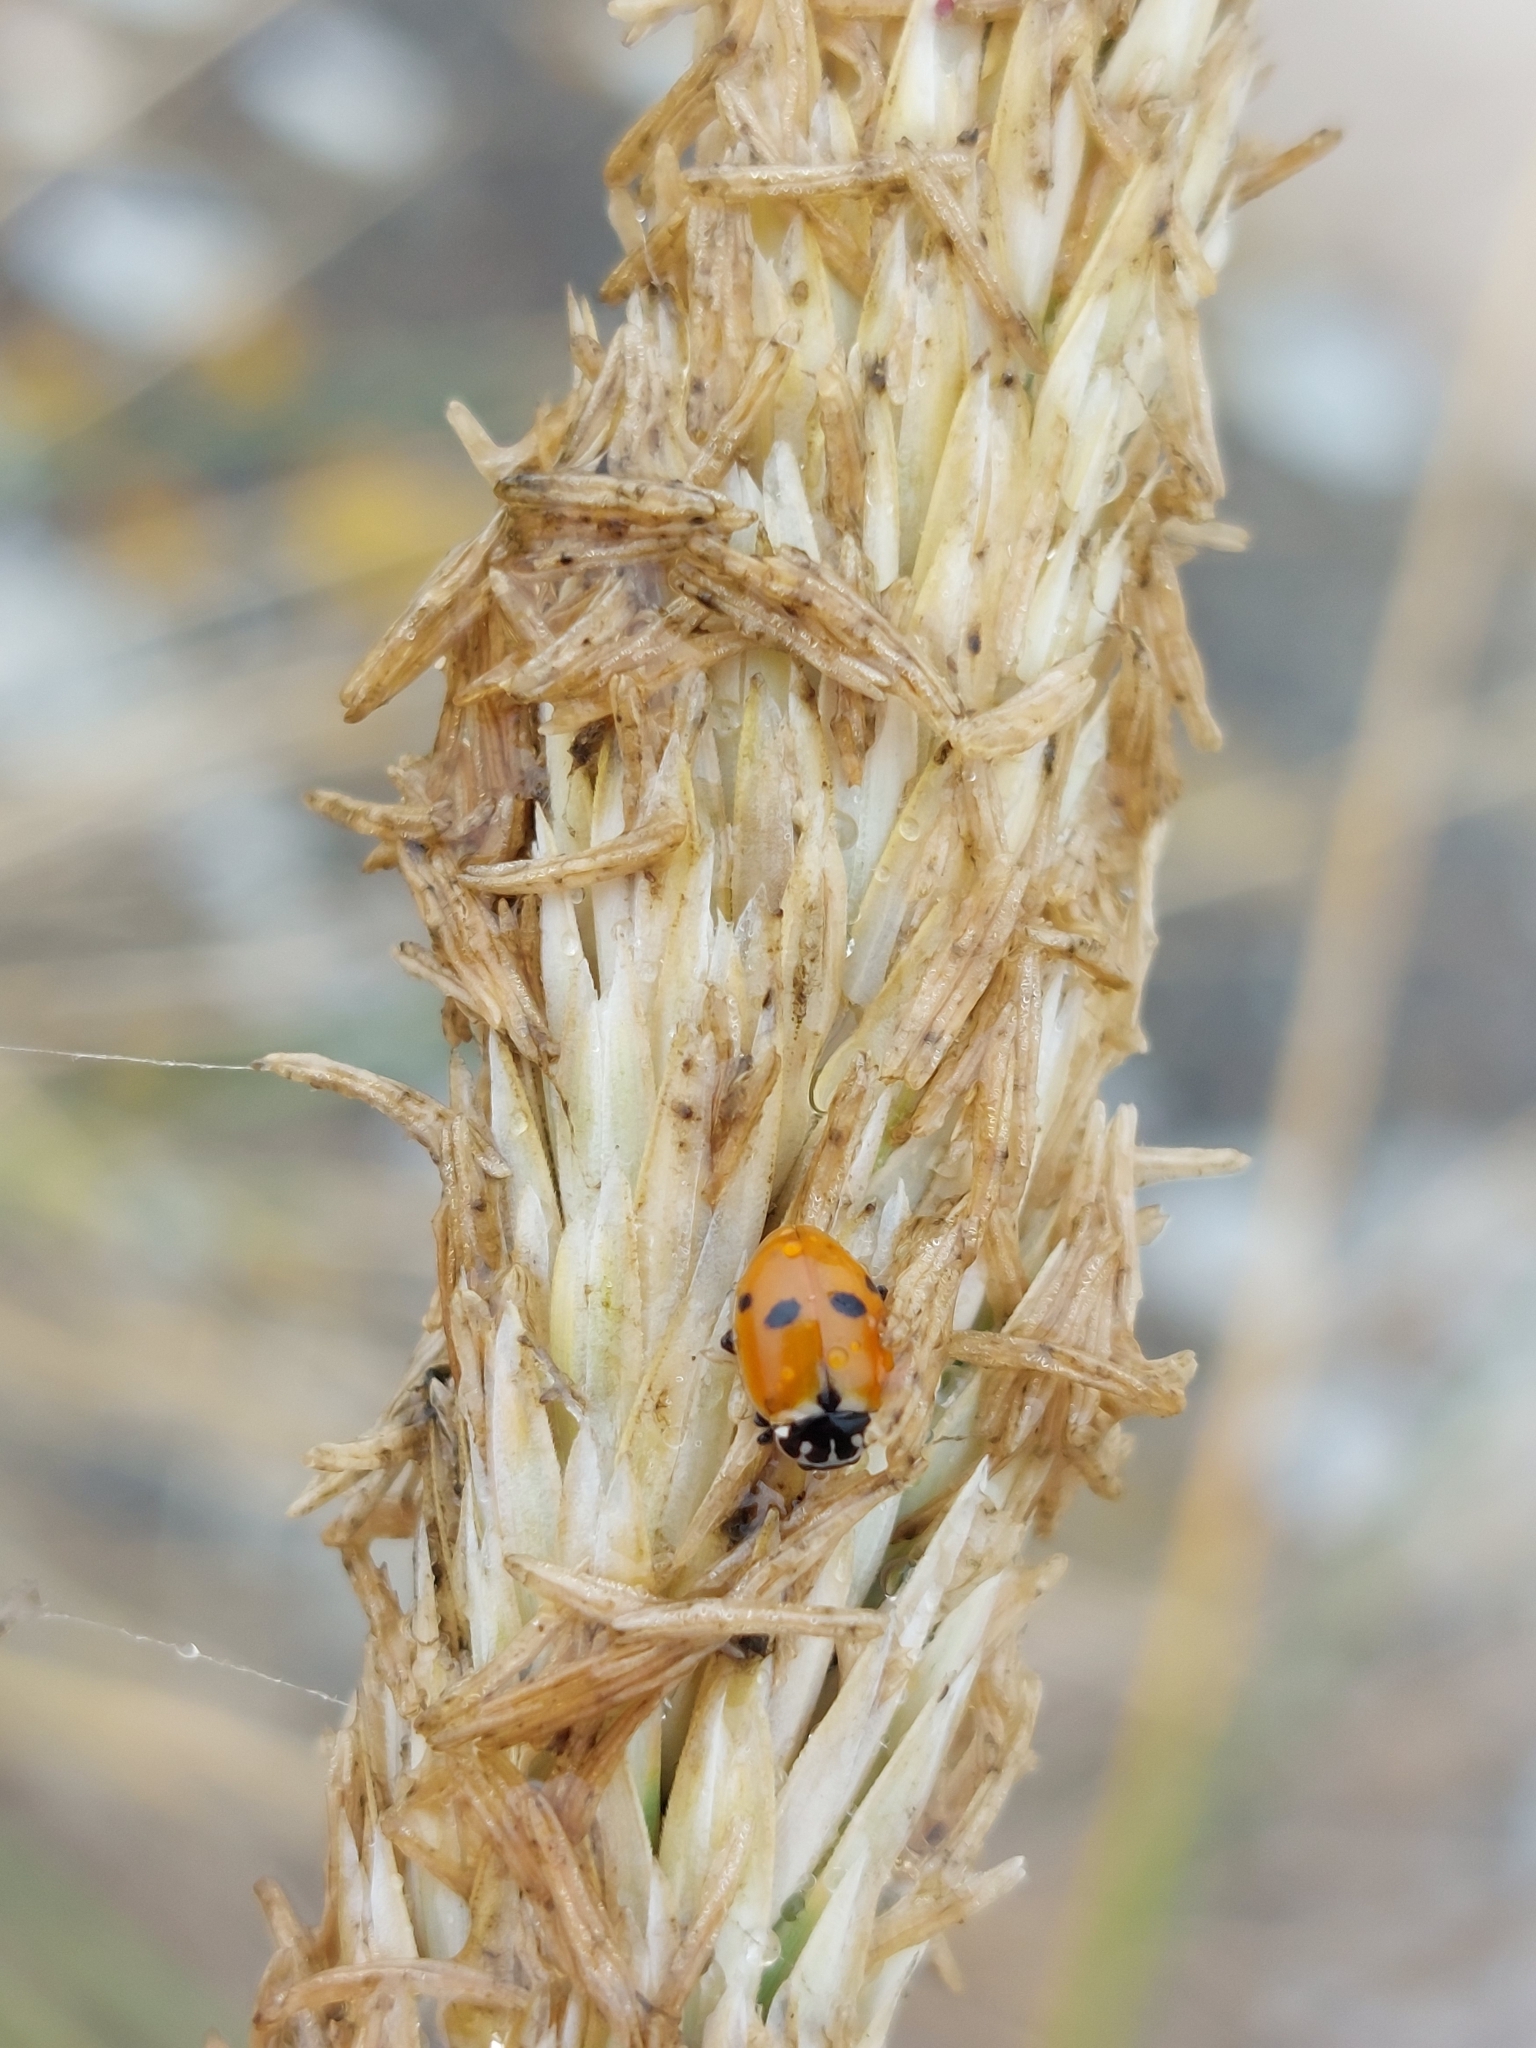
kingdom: Animalia
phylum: Arthropoda
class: Insecta
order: Coleoptera
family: Coccinellidae
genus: Hippodamia
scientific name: Hippodamia variegata
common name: Ladybird beetle
